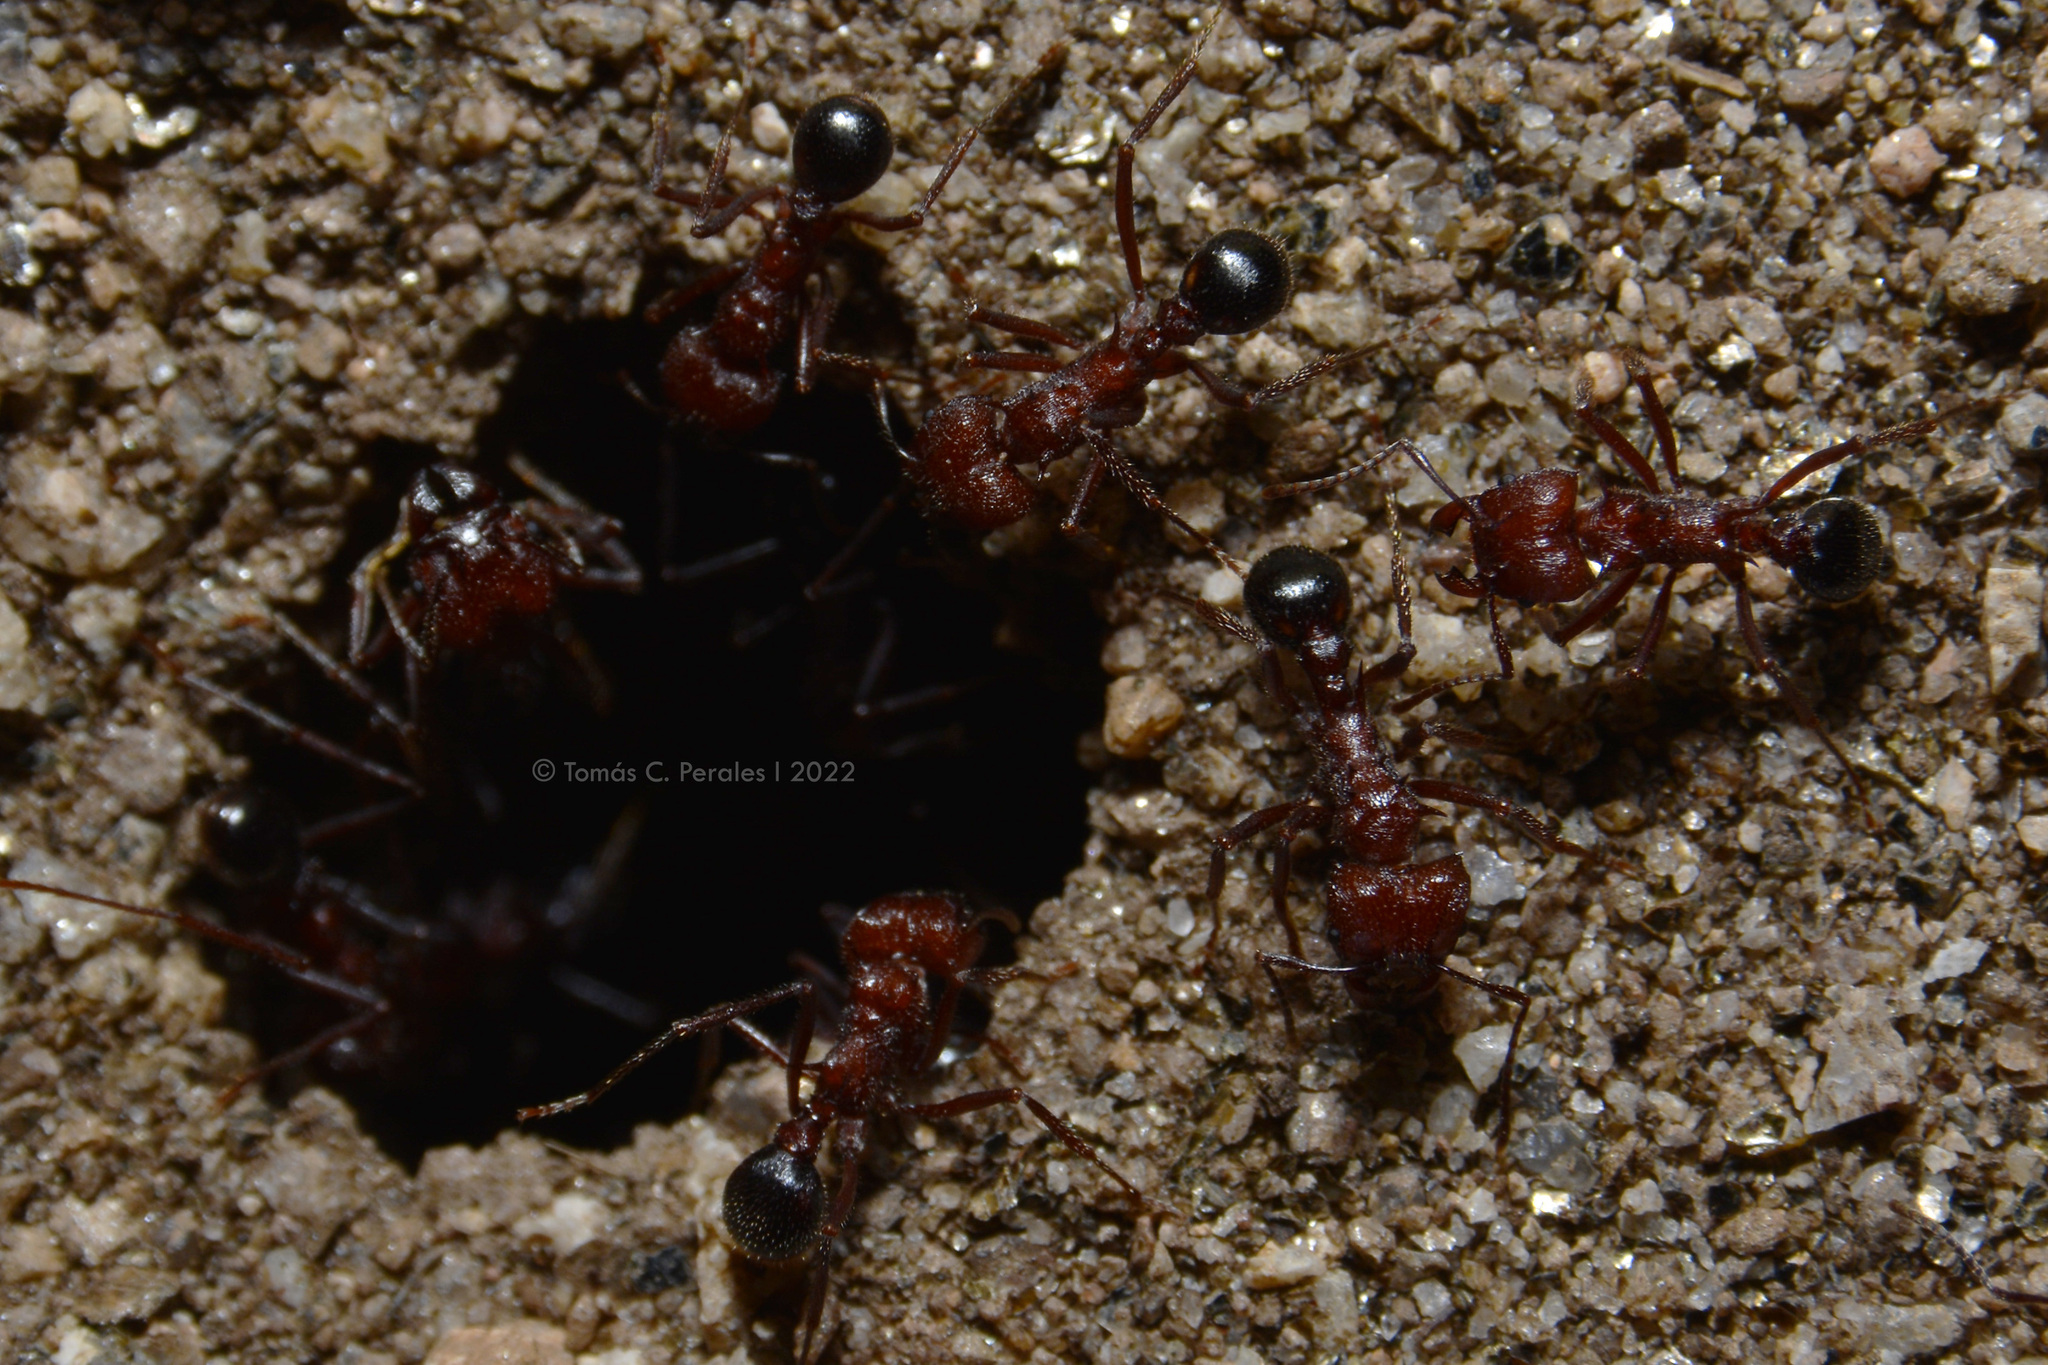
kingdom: Animalia
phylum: Arthropoda
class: Insecta
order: Hymenoptera
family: Formicidae
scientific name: Formicidae
